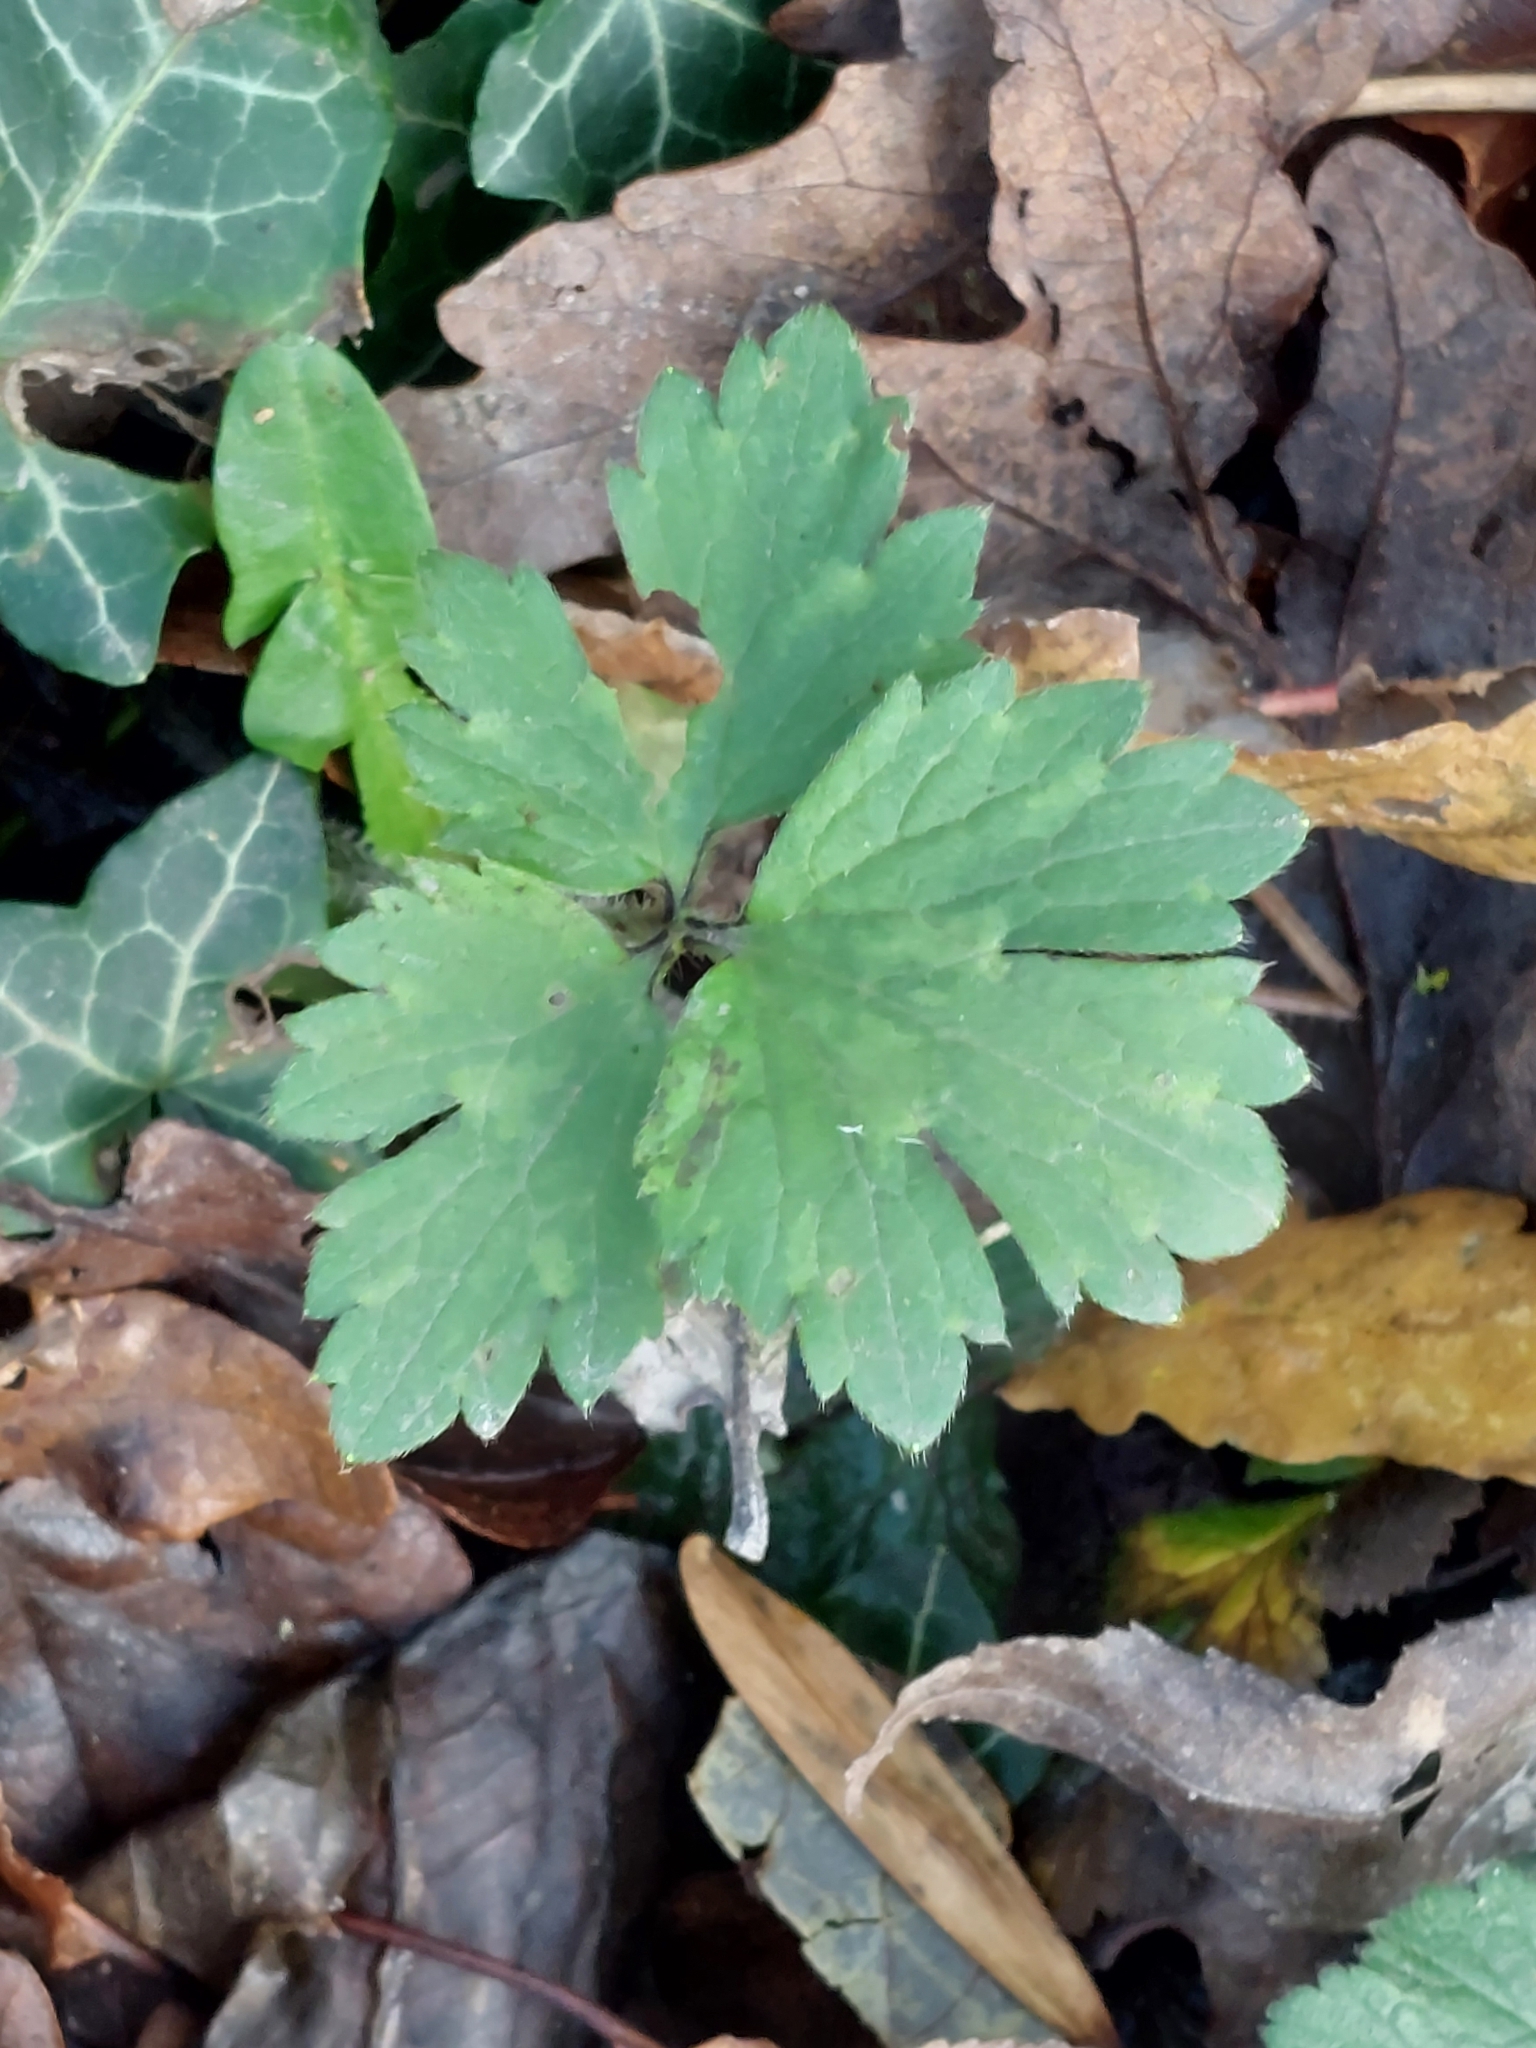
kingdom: Plantae
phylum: Tracheophyta
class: Magnoliopsida
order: Ranunculales
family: Ranunculaceae
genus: Ranunculus
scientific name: Ranunculus repens
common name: Creeping buttercup
